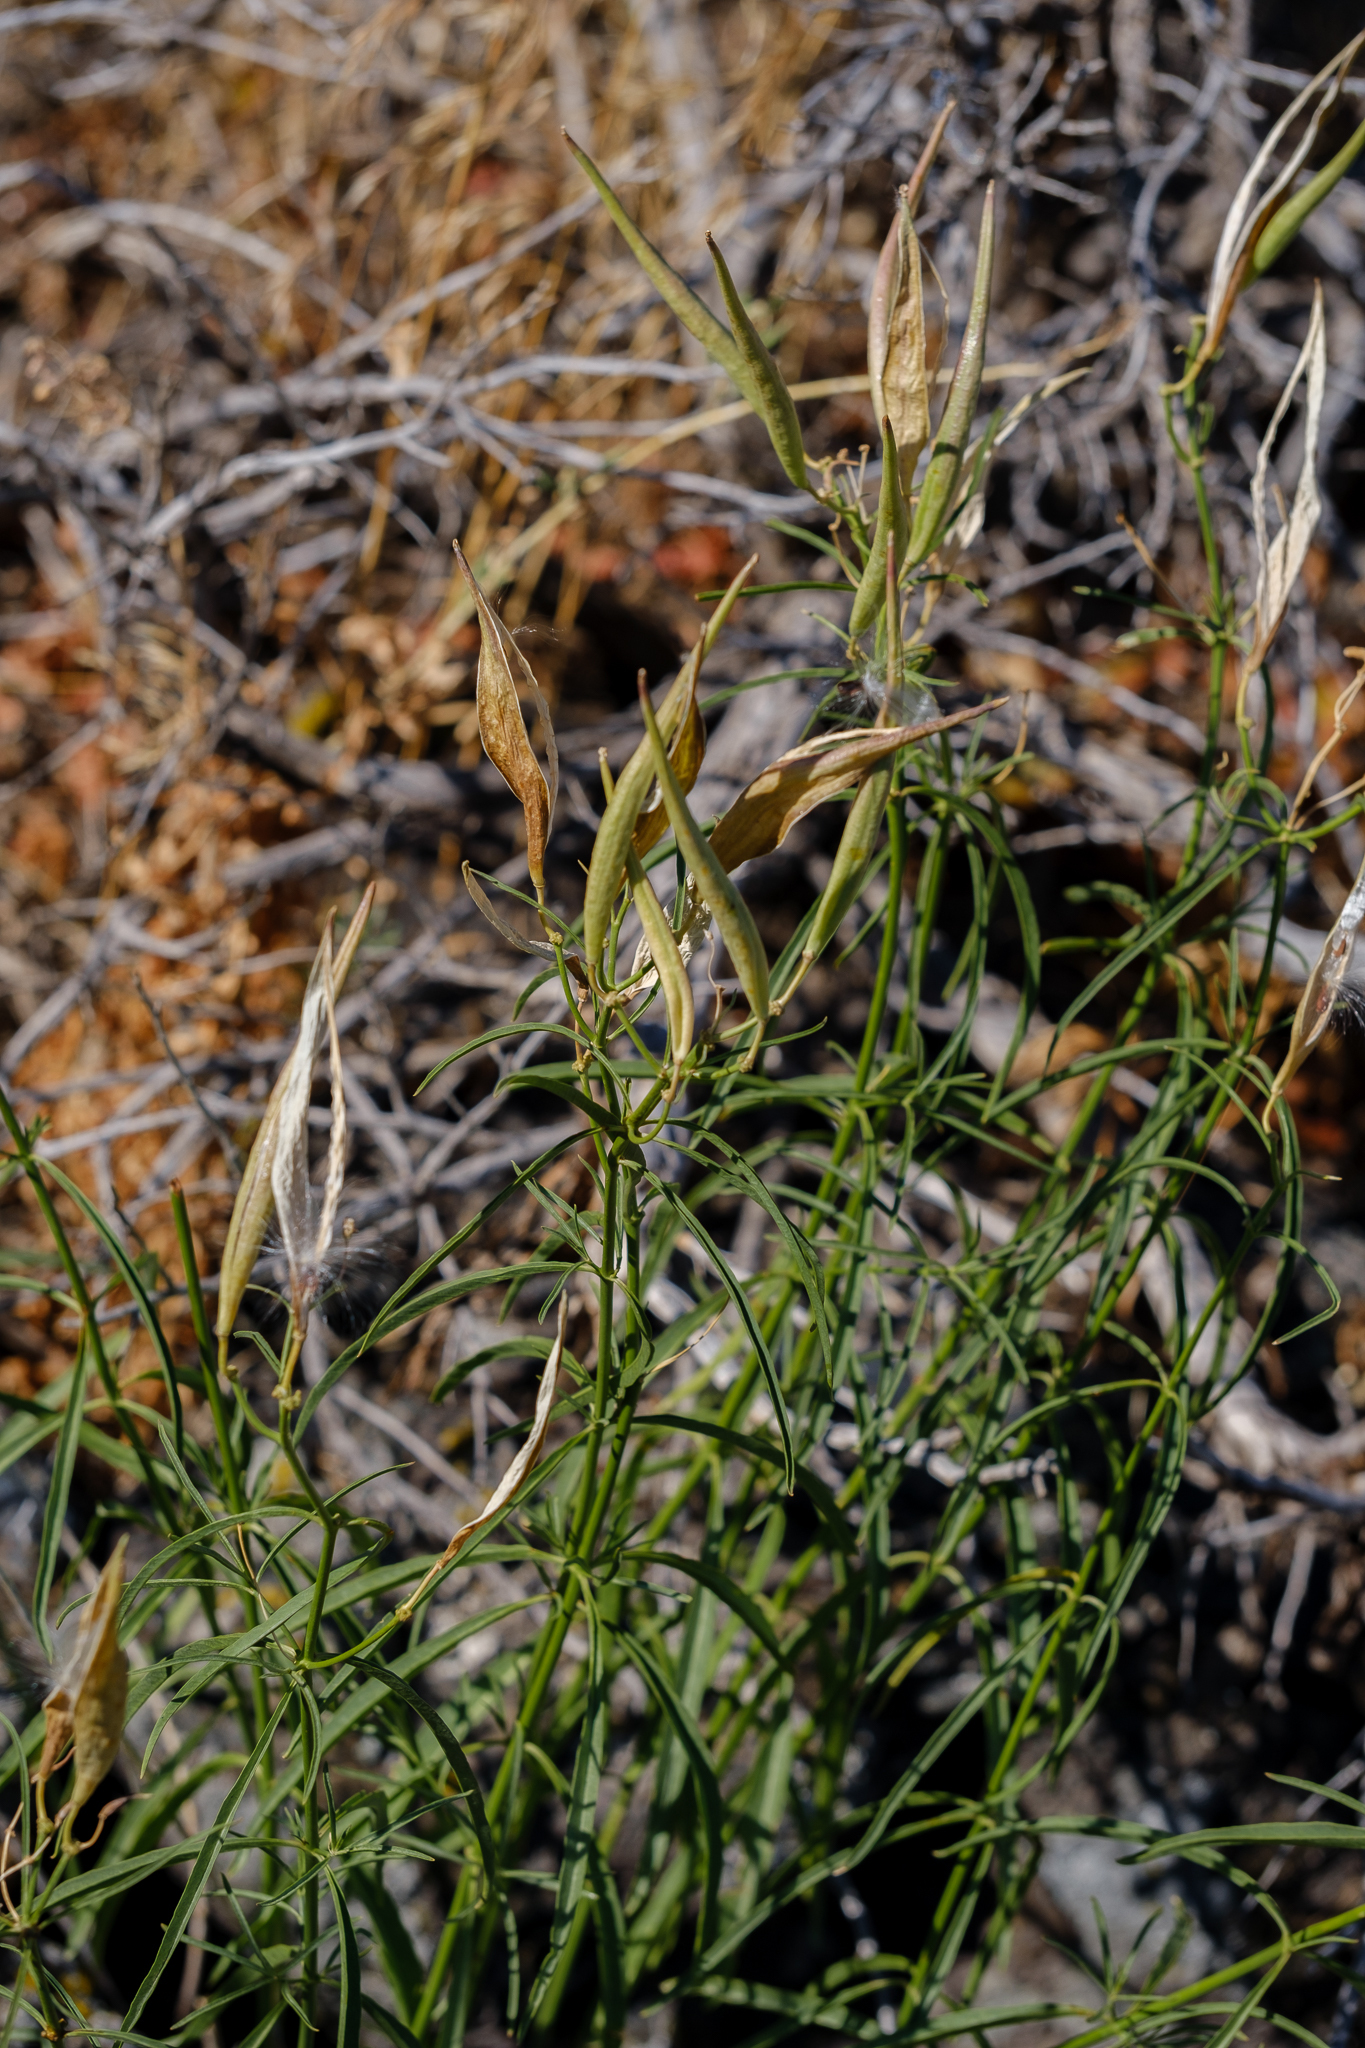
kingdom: Plantae
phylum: Tracheophyta
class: Magnoliopsida
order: Gentianales
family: Apocynaceae
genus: Asclepias
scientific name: Asclepias fascicularis
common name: Mexican milkweed
